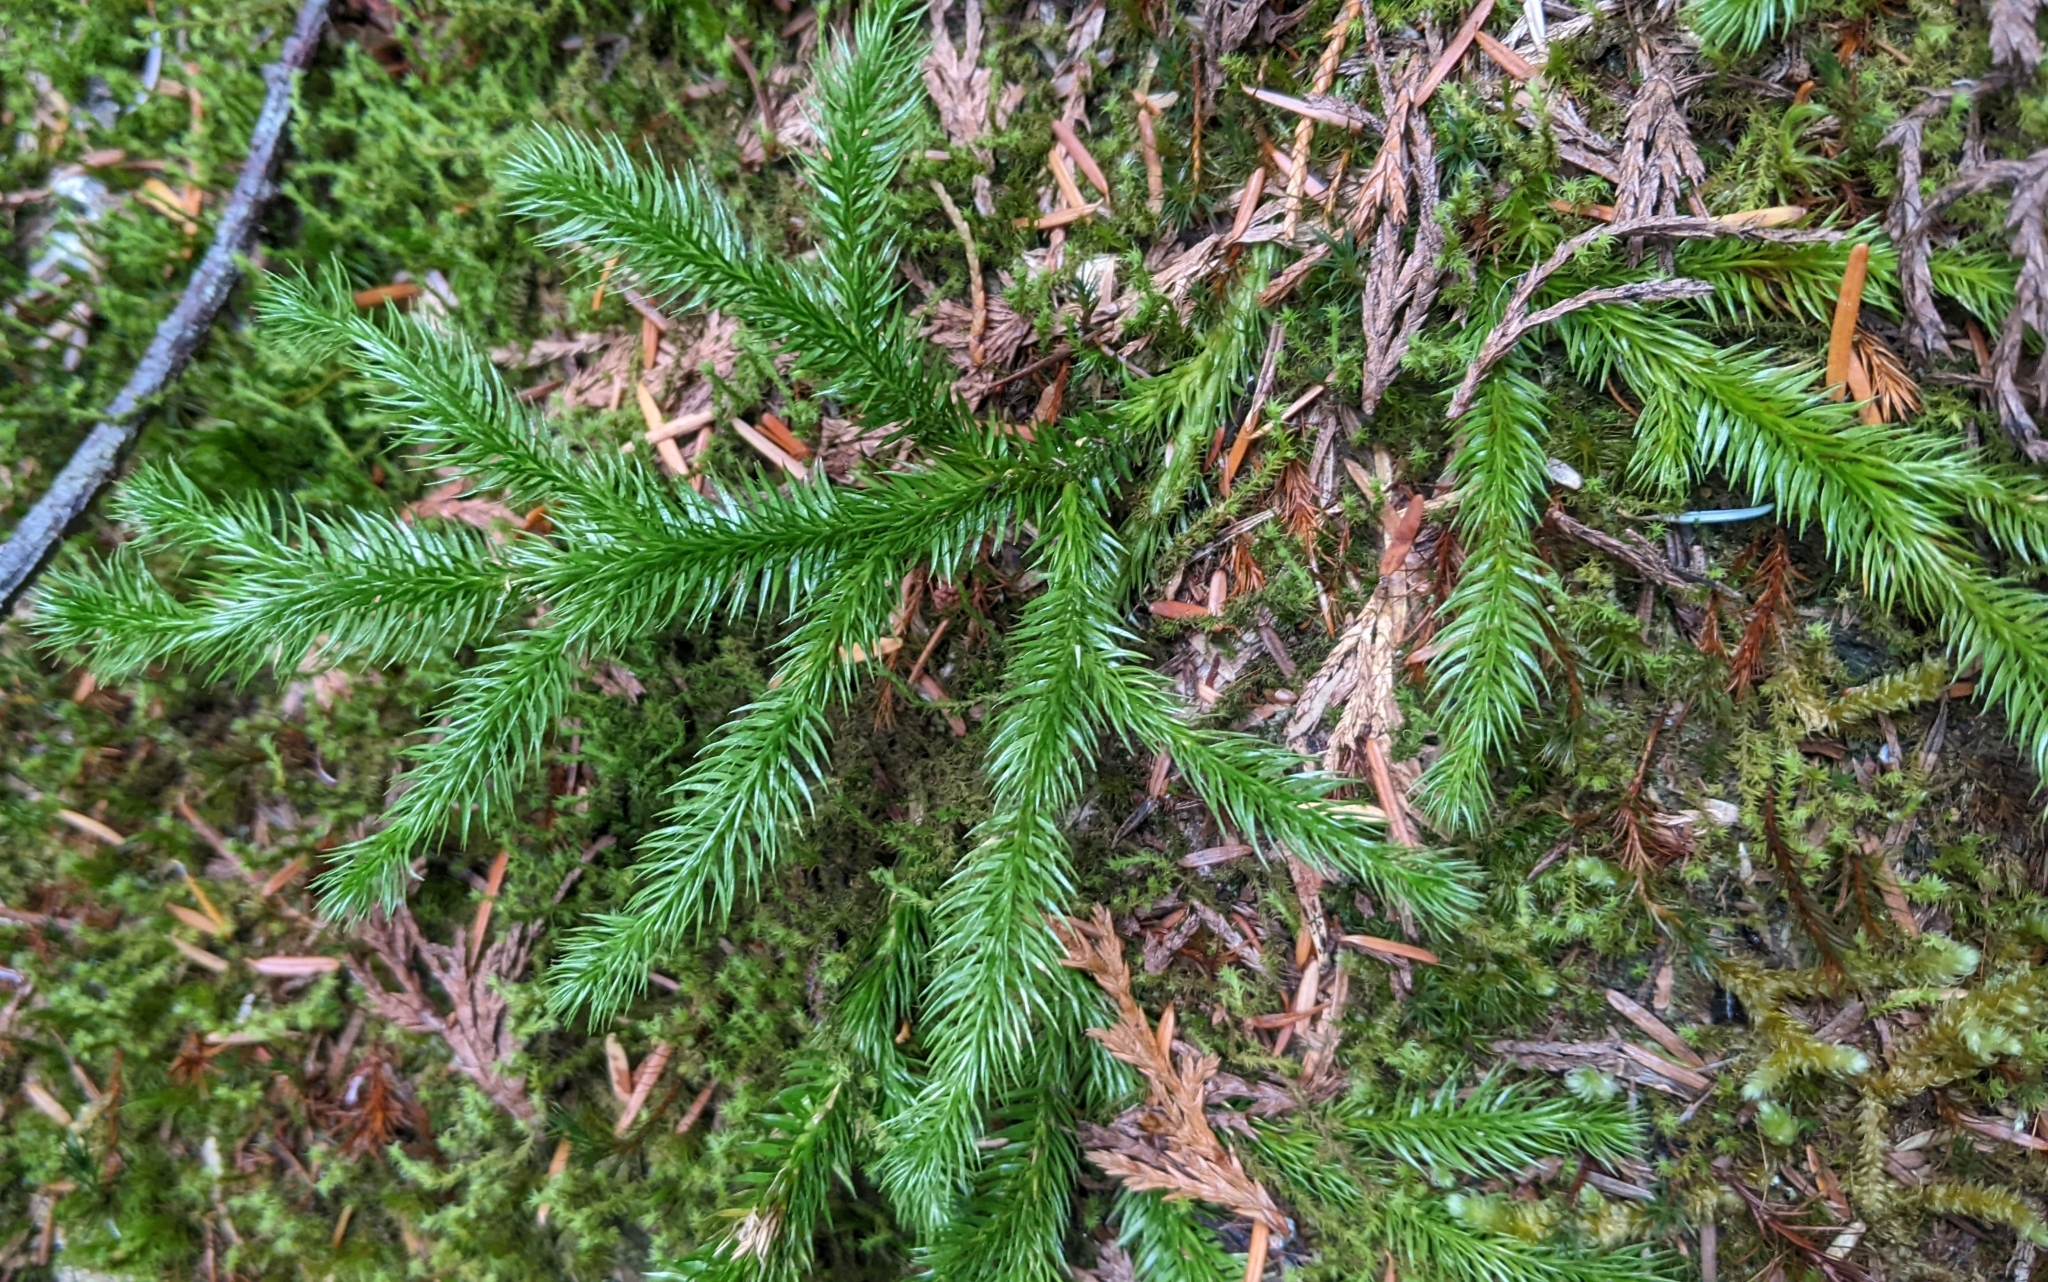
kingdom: Plantae
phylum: Tracheophyta
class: Lycopodiopsida
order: Lycopodiales
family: Lycopodiaceae
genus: Lycopodium
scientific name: Lycopodium clavatum
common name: Stag's-horn clubmoss
